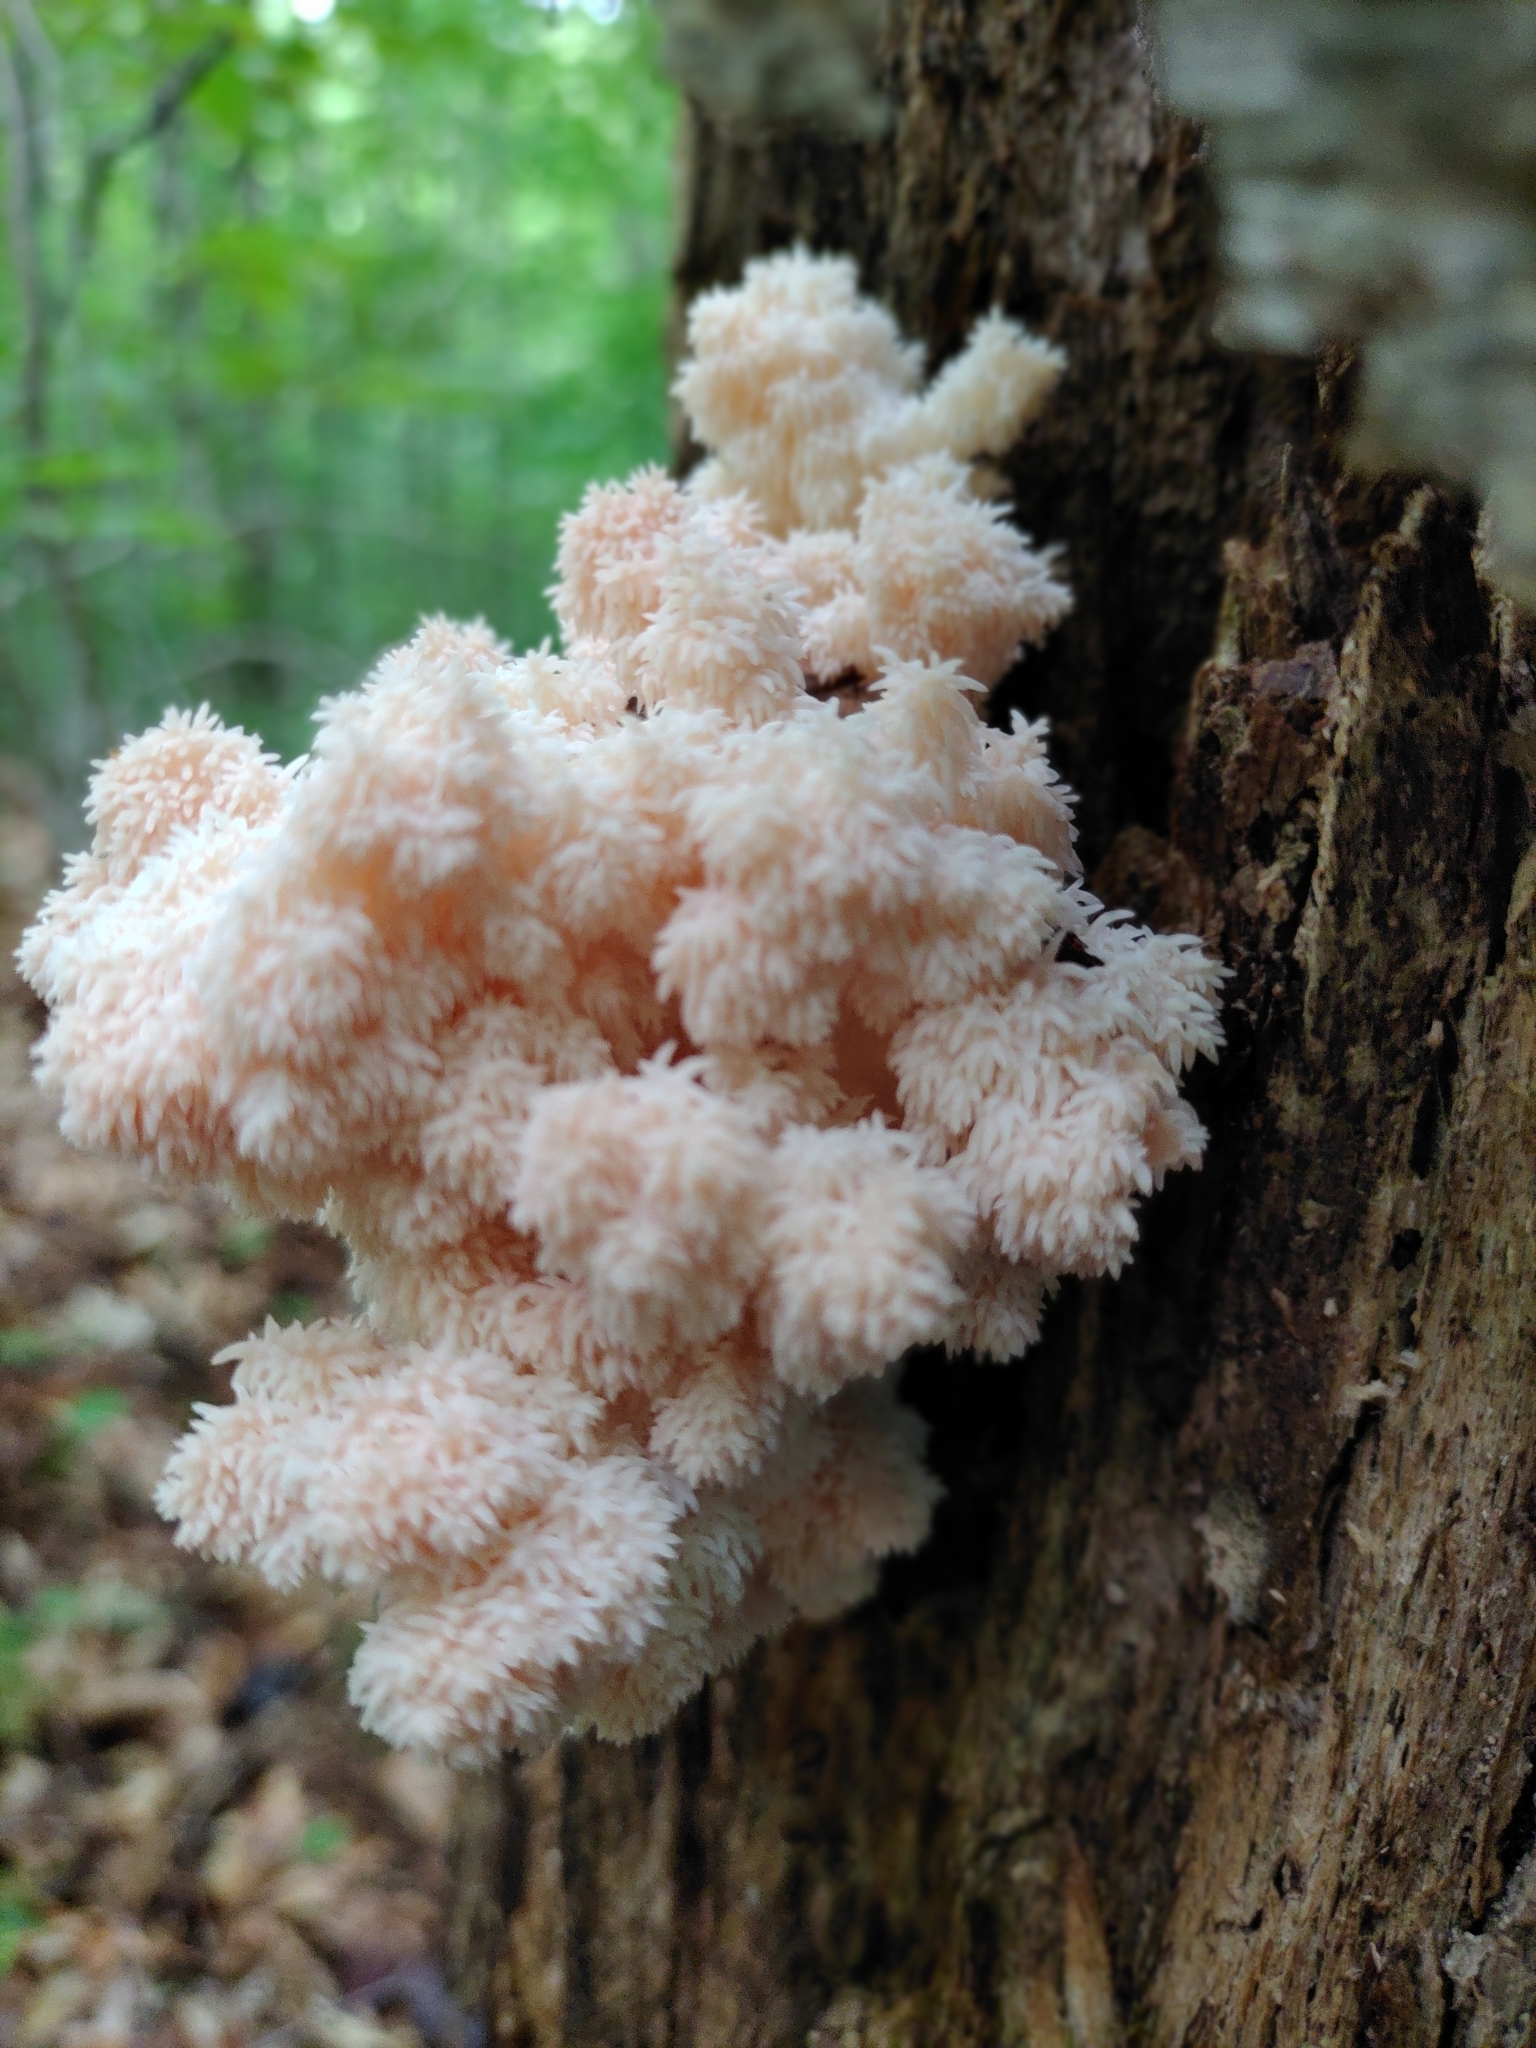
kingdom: Fungi
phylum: Basidiomycota
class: Agaricomycetes
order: Russulales
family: Hericiaceae
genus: Hericium
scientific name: Hericium coralloides
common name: Coral tooth
